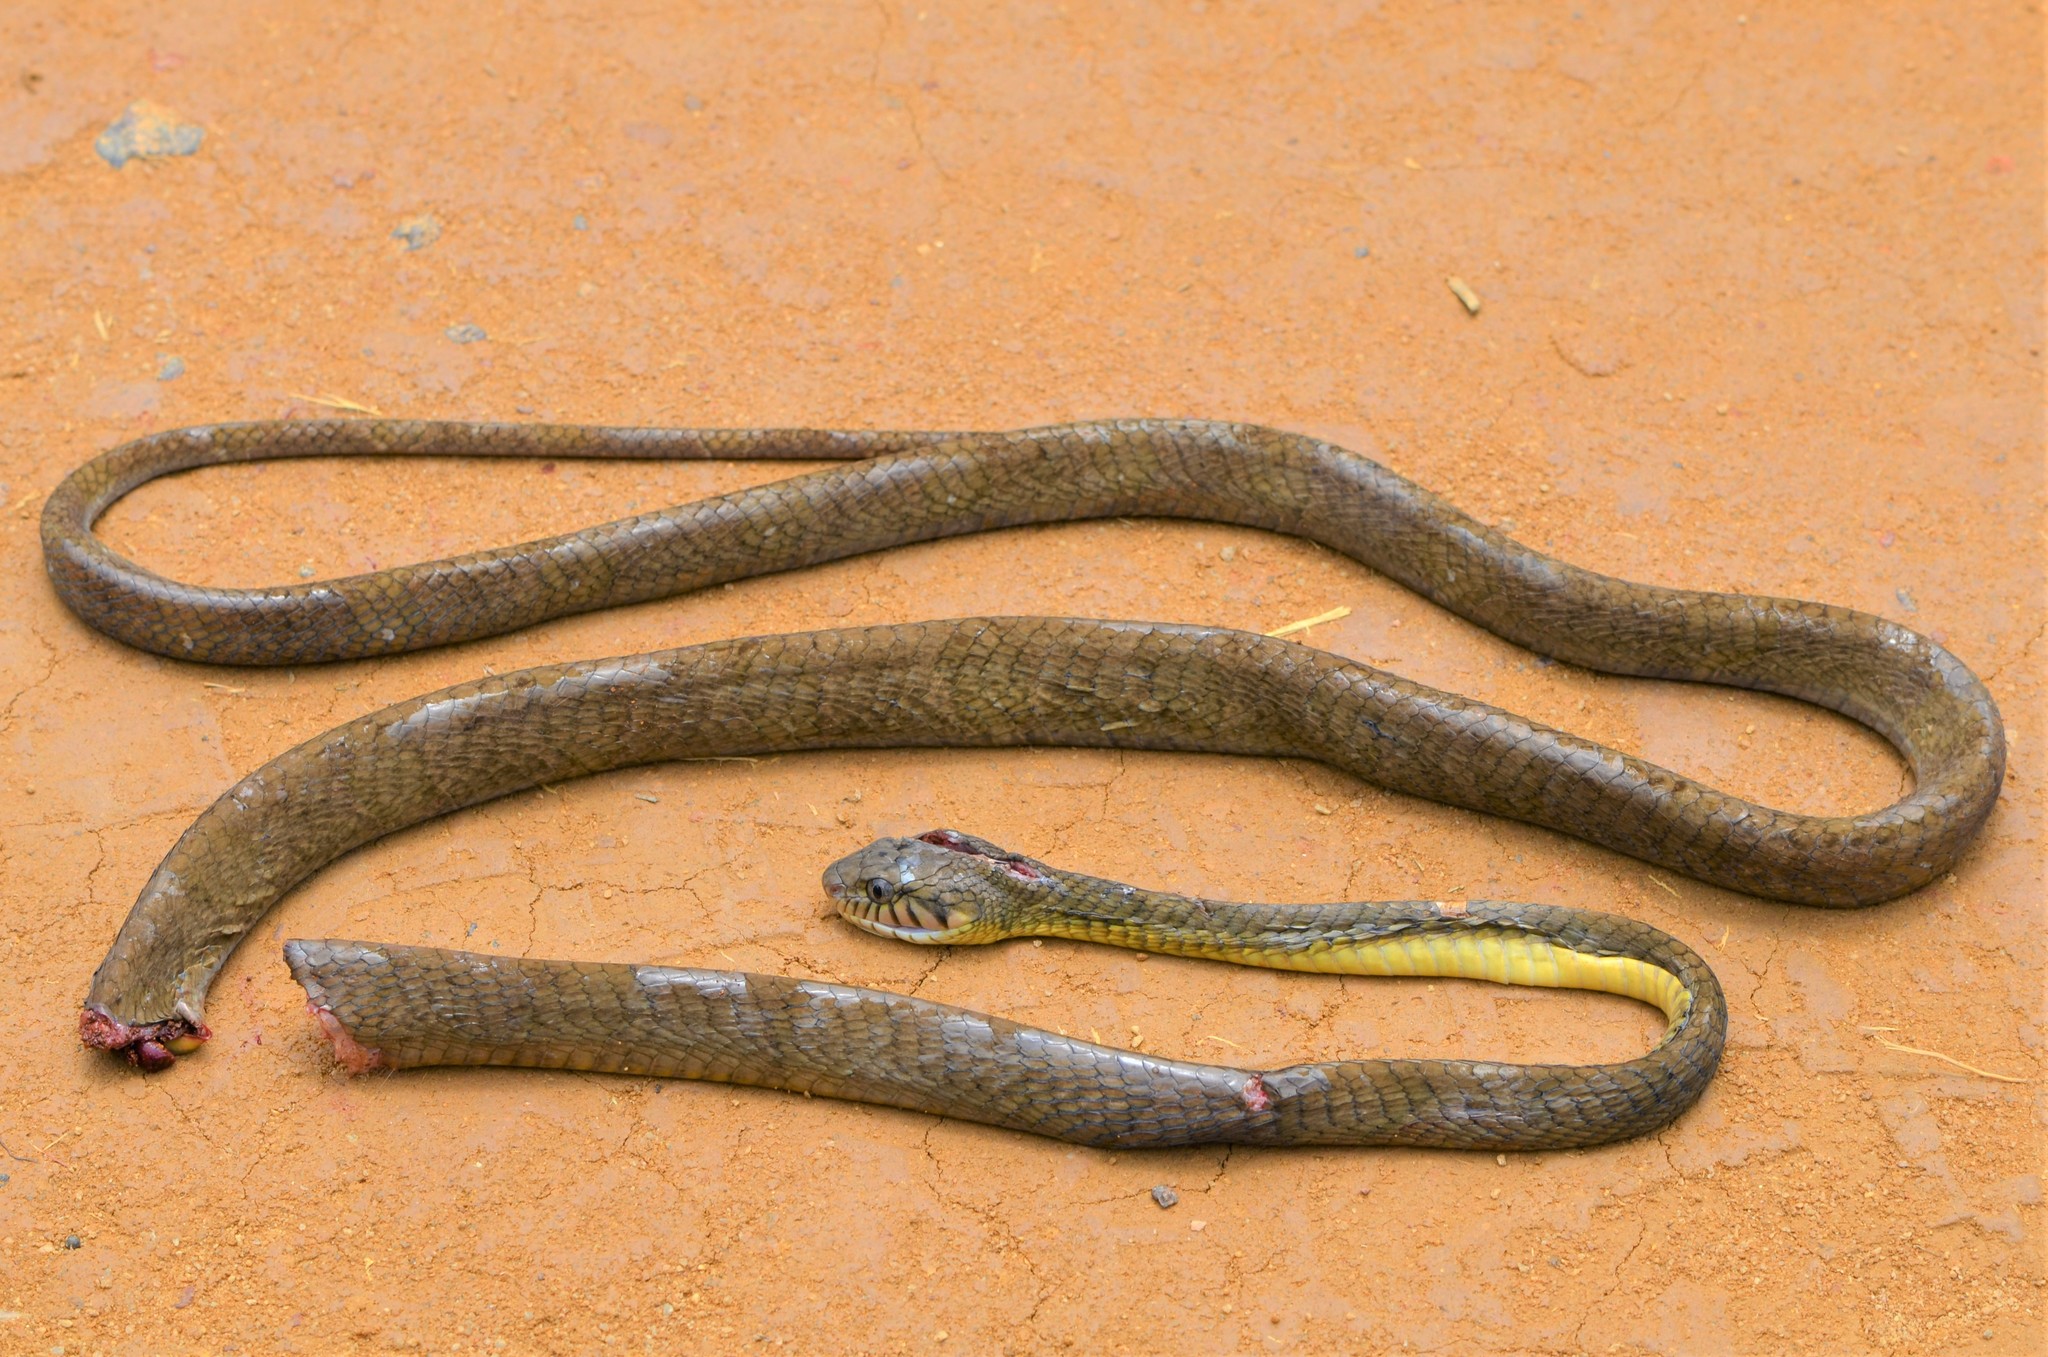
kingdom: Animalia
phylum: Chordata
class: Squamata
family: Colubridae
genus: Toxicodryas
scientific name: Toxicodryas blandingii
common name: Blandings tree snake
